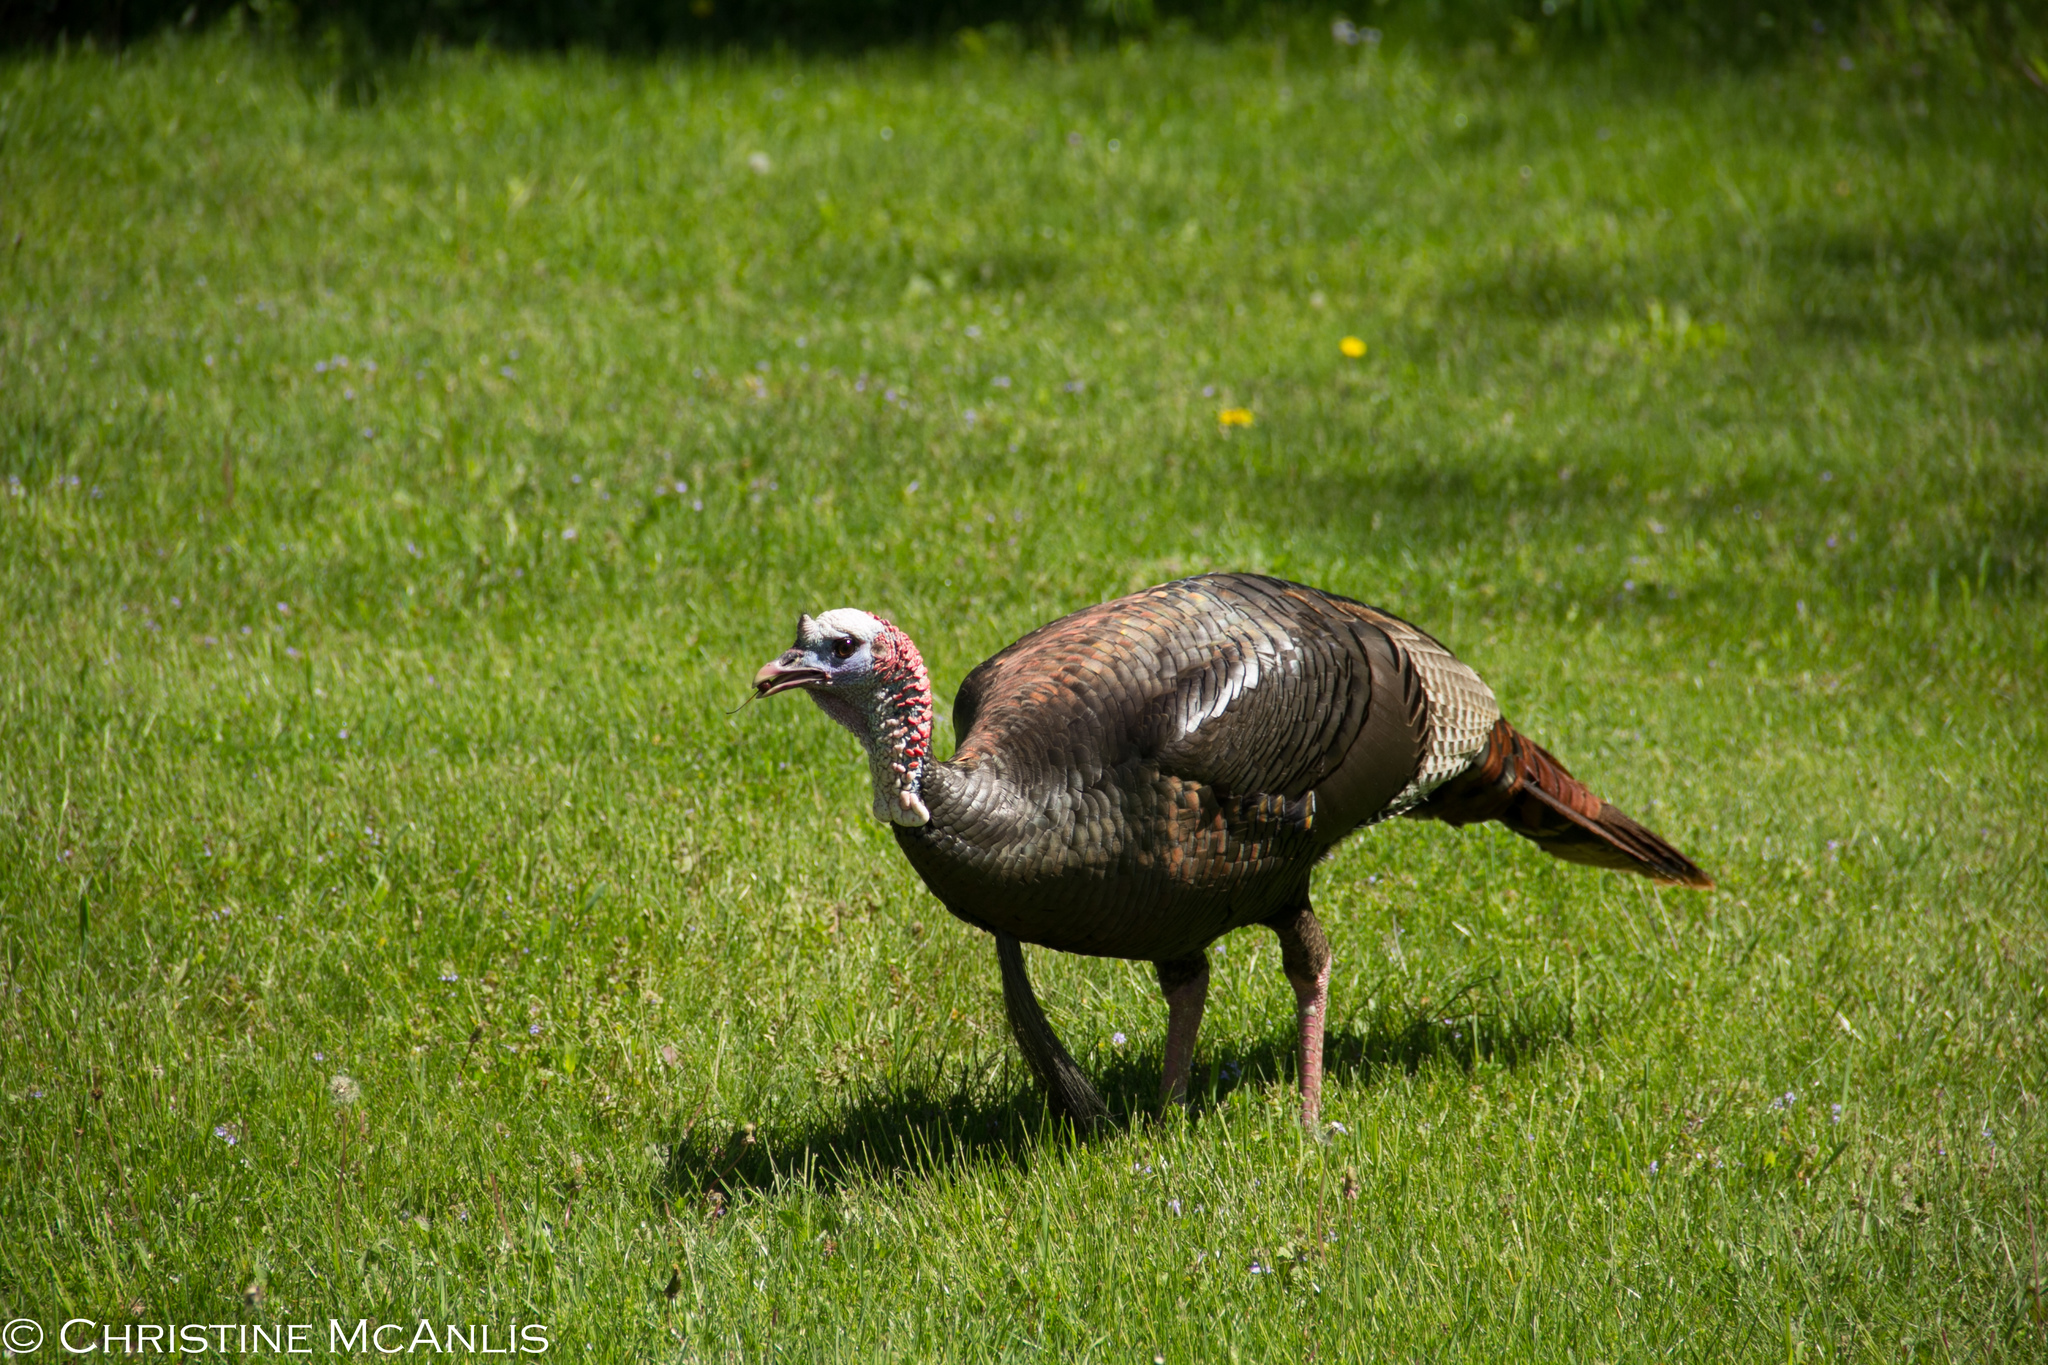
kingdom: Animalia
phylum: Chordata
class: Aves
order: Galliformes
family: Phasianidae
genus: Meleagris
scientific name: Meleagris gallopavo
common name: Wild turkey
